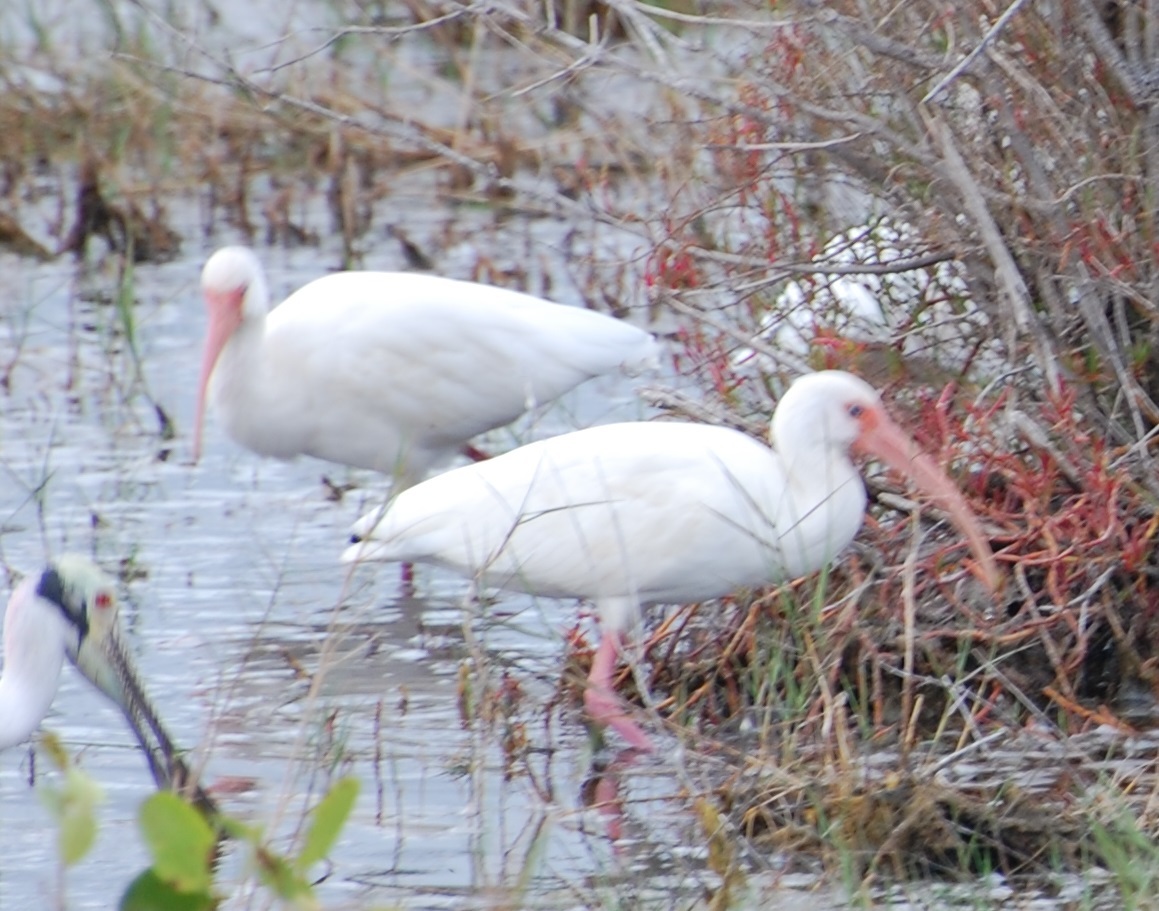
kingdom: Animalia
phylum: Chordata
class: Aves
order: Pelecaniformes
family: Threskiornithidae
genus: Eudocimus
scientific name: Eudocimus albus
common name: White ibis
